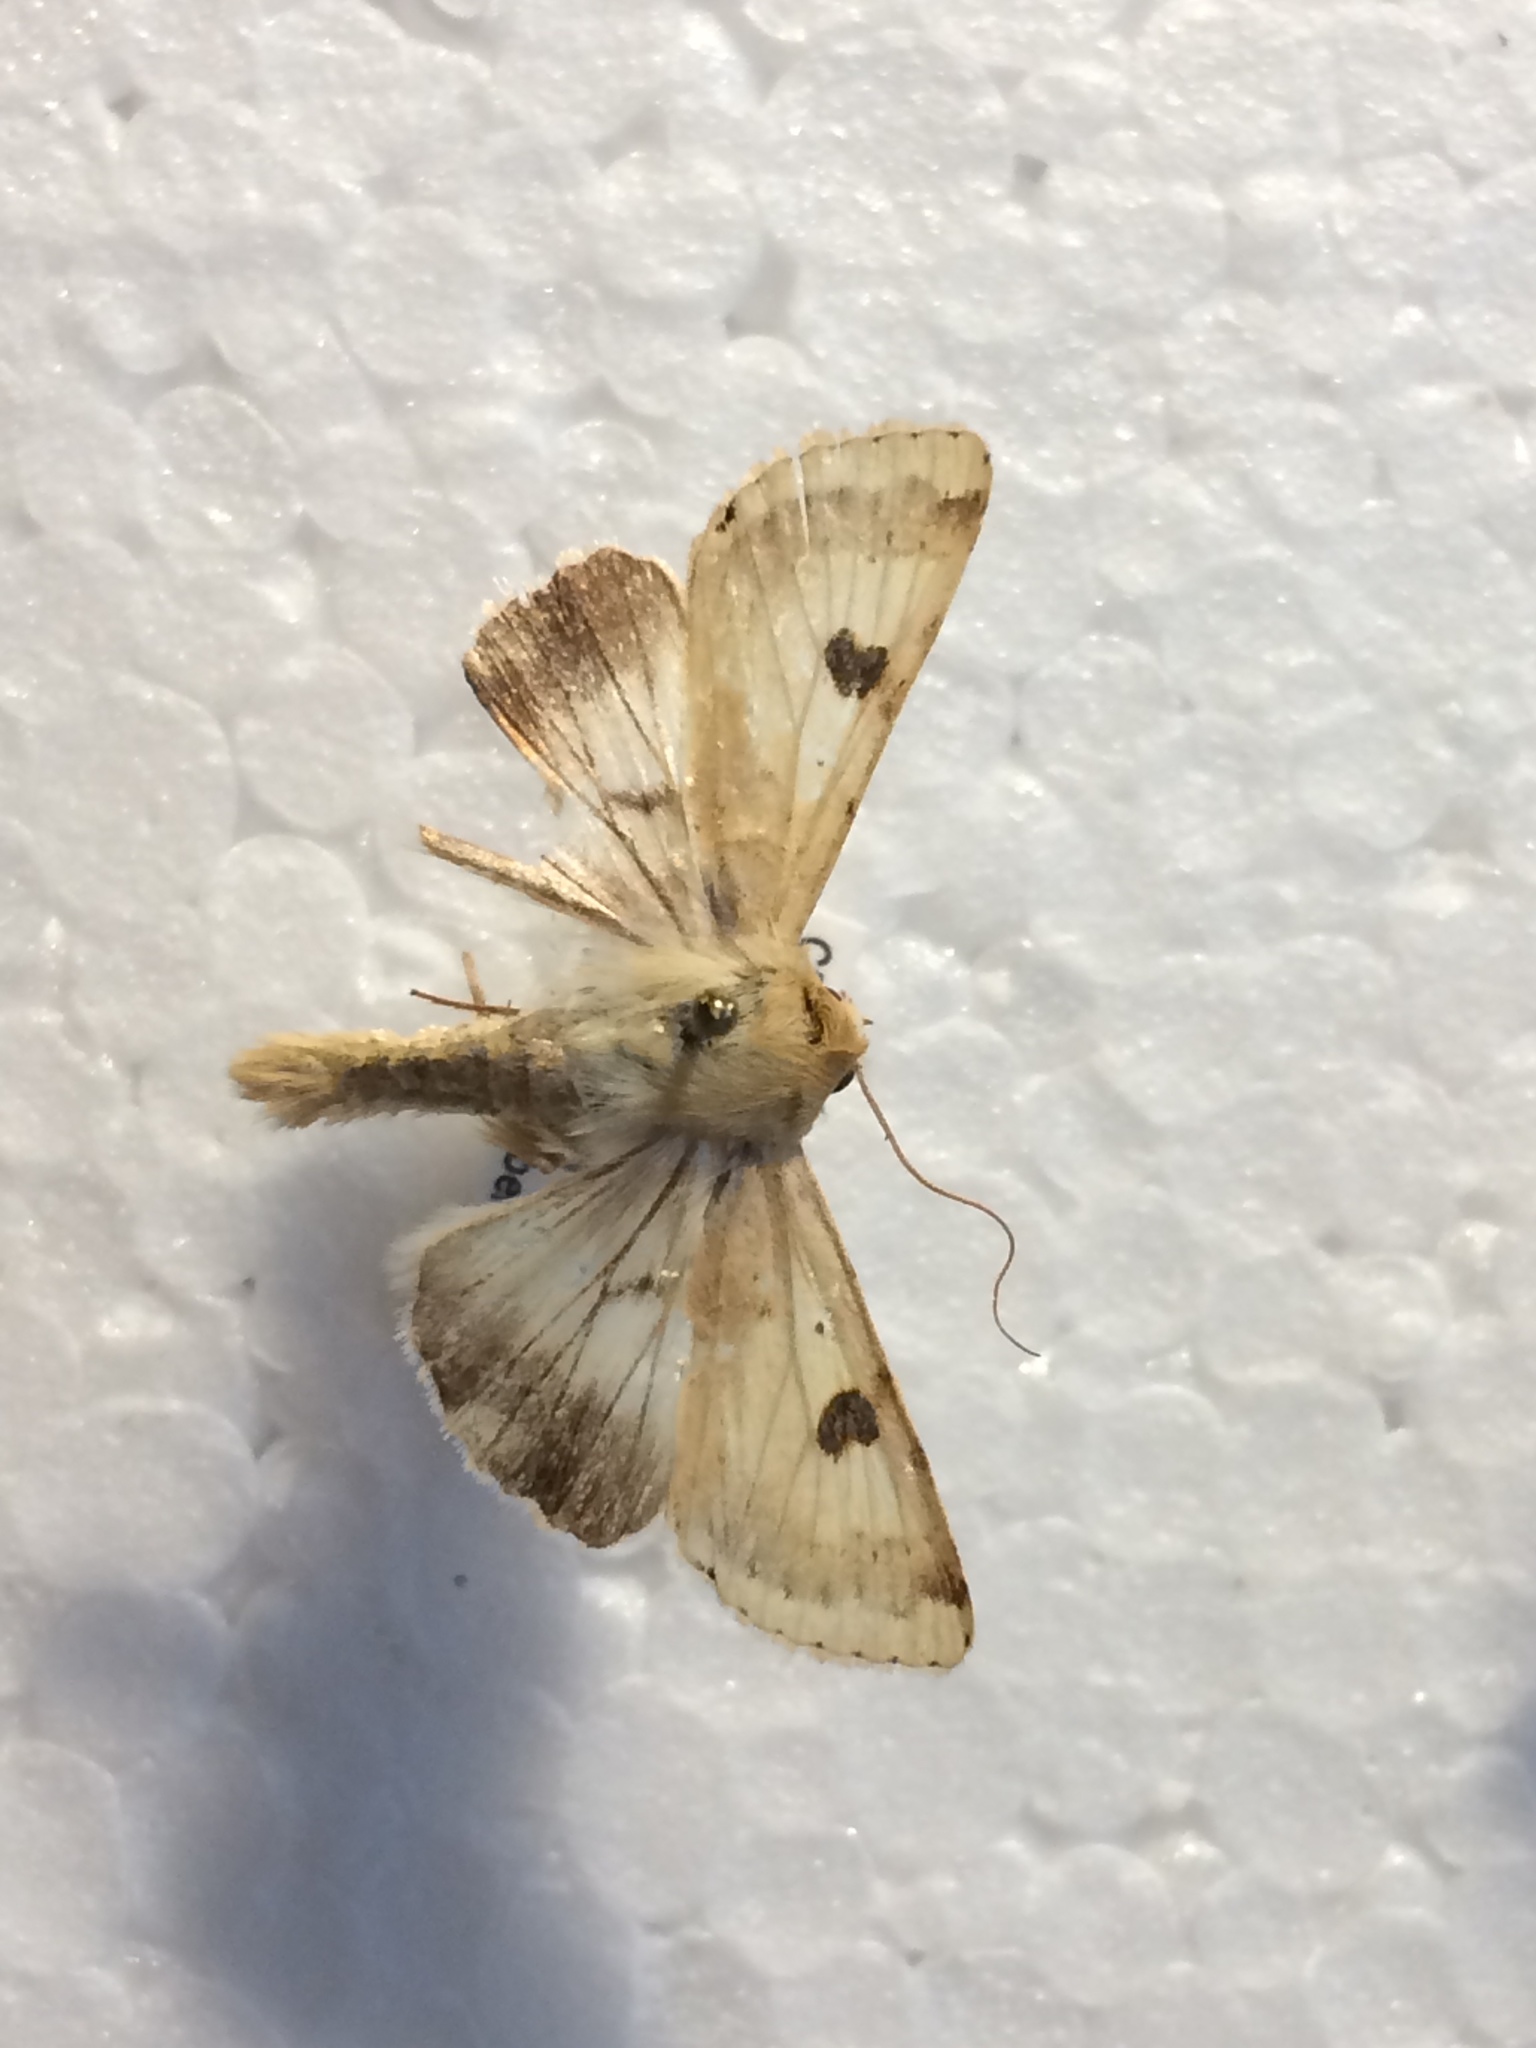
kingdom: Animalia
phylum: Arthropoda
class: Insecta
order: Lepidoptera
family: Noctuidae
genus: Heliothis
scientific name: Heliothis peltigera
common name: Bordered straw
